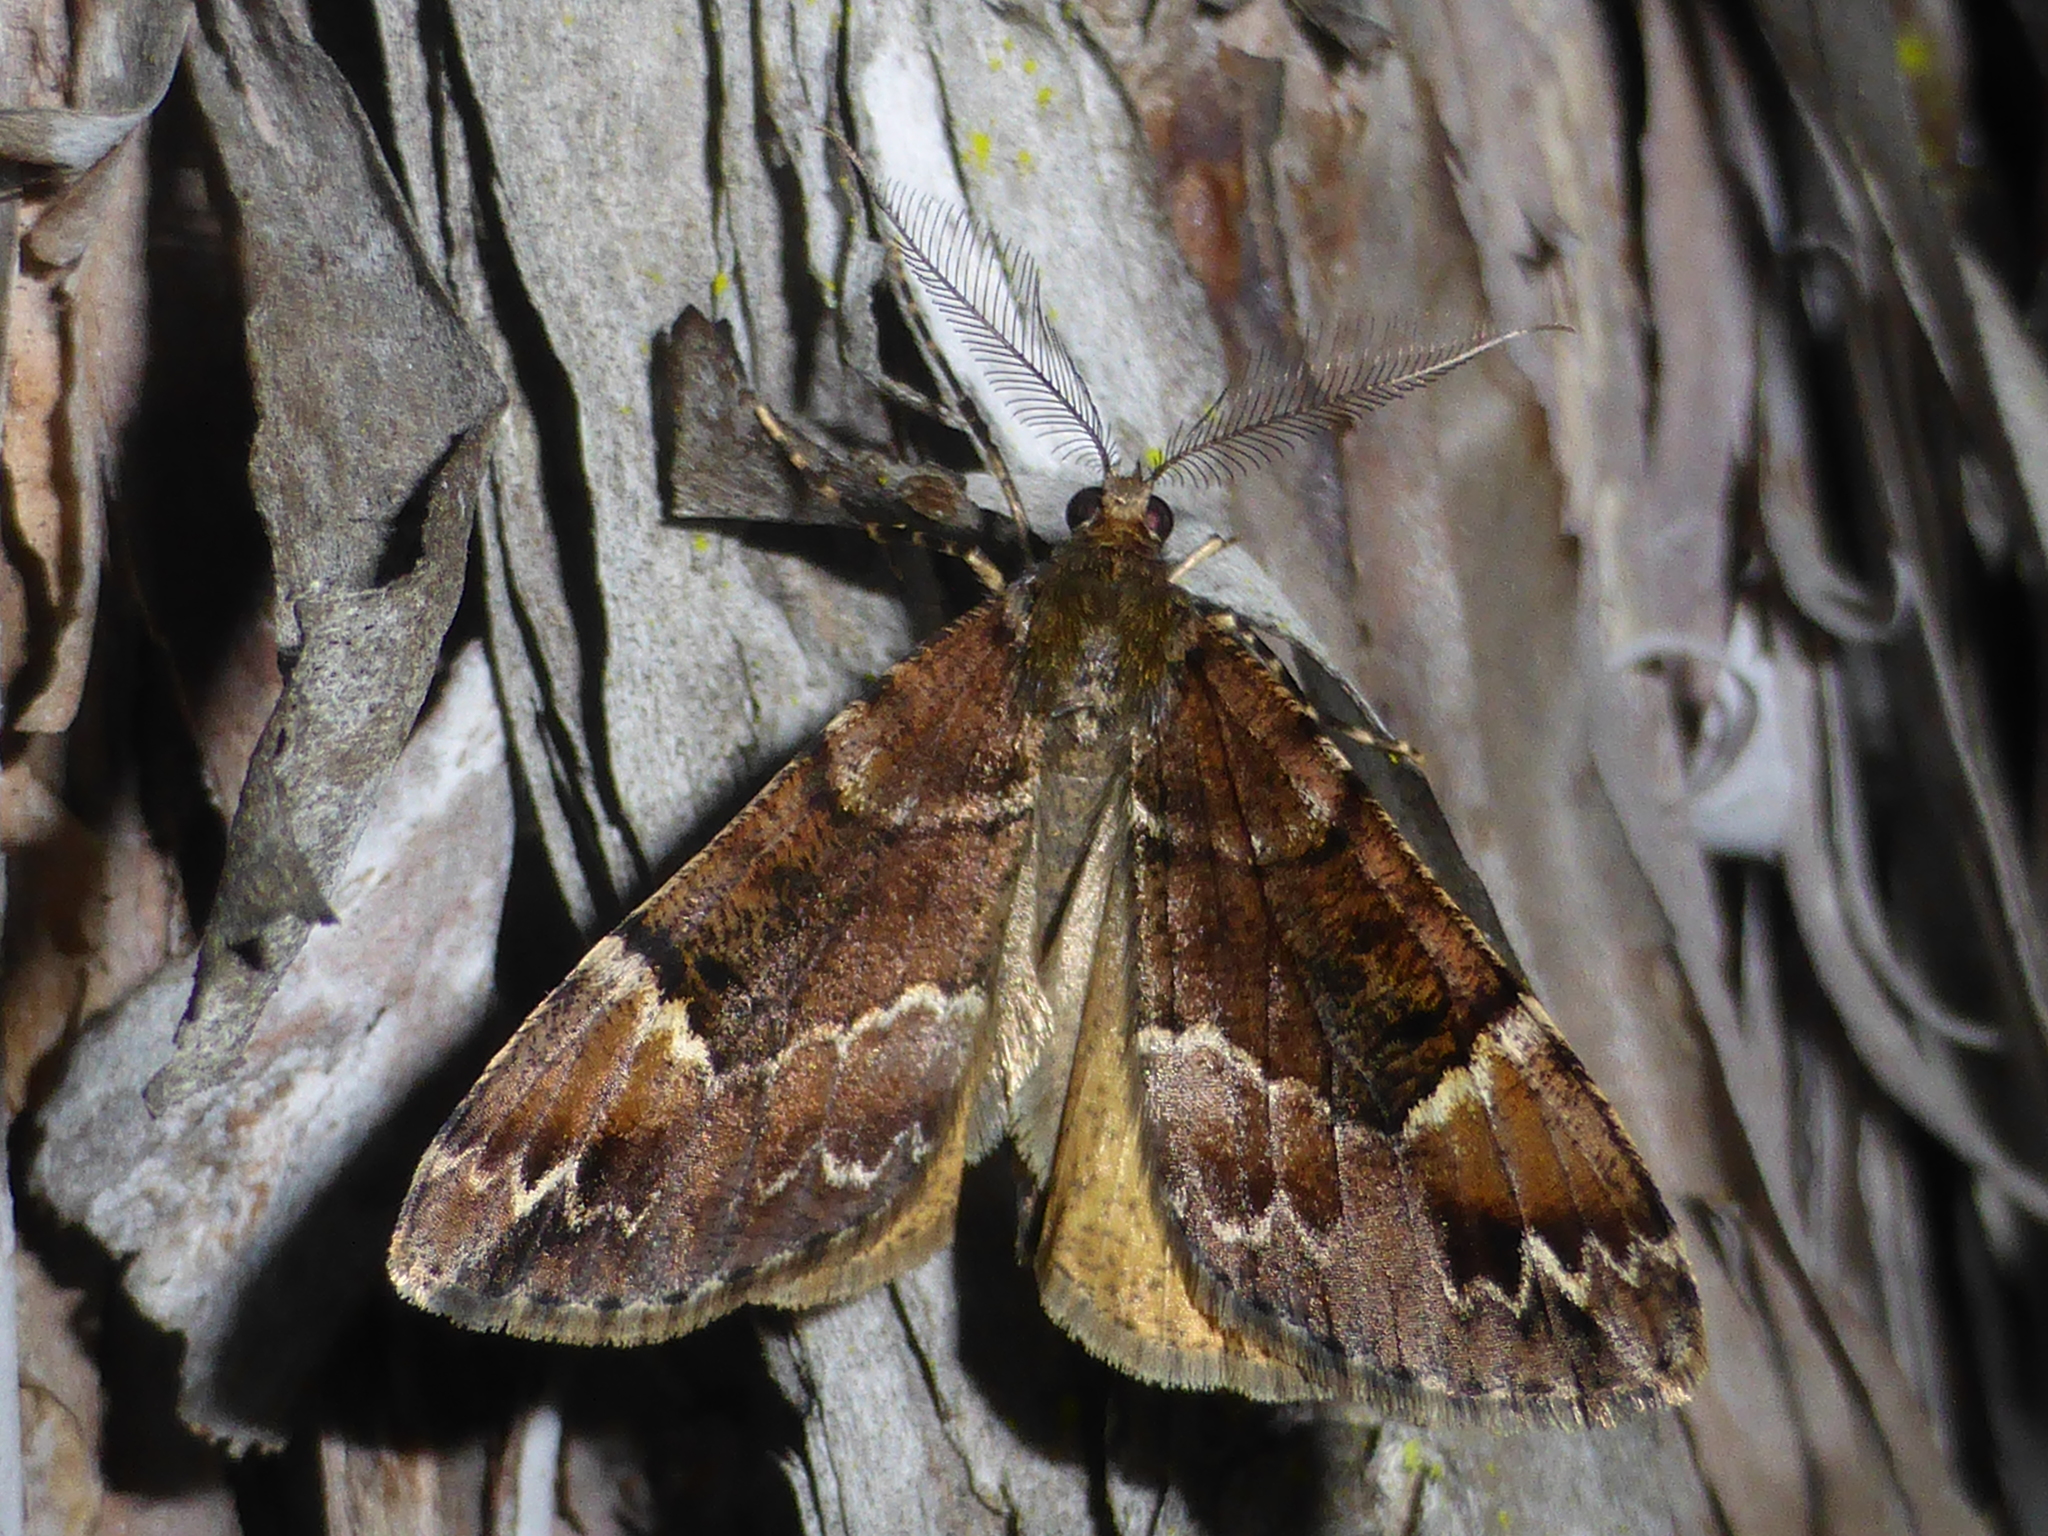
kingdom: Animalia
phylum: Arthropoda
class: Insecta
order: Lepidoptera
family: Geometridae
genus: Pseudocoremia
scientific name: Pseudocoremia productata
